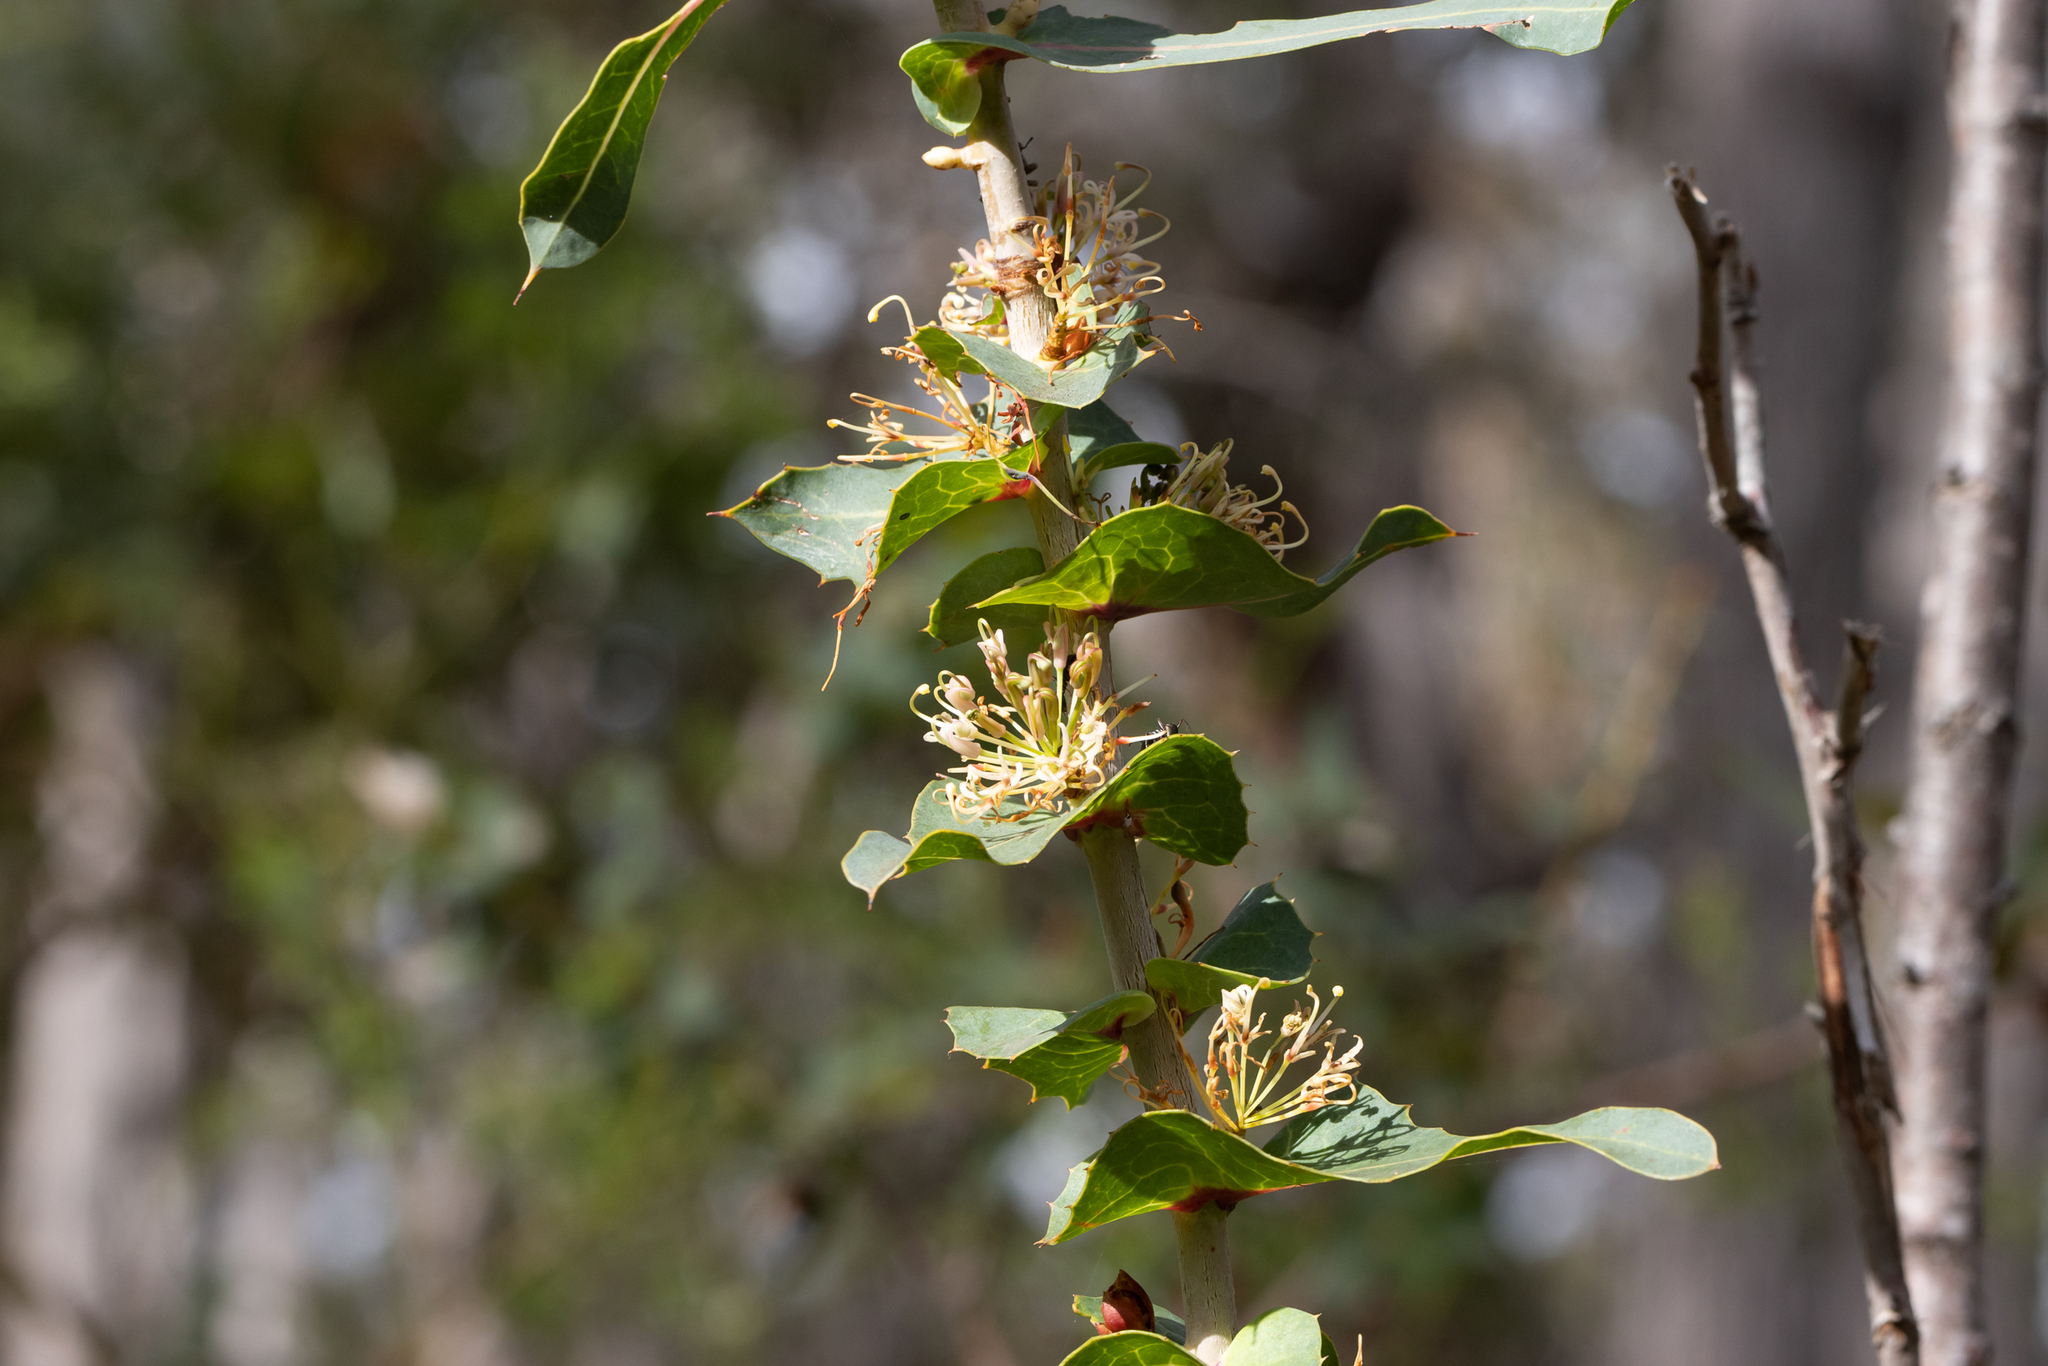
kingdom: Plantae
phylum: Tracheophyta
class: Magnoliopsida
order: Proteales
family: Proteaceae
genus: Hakea
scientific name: Hakea amplexicaulis
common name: Prickly hakea
